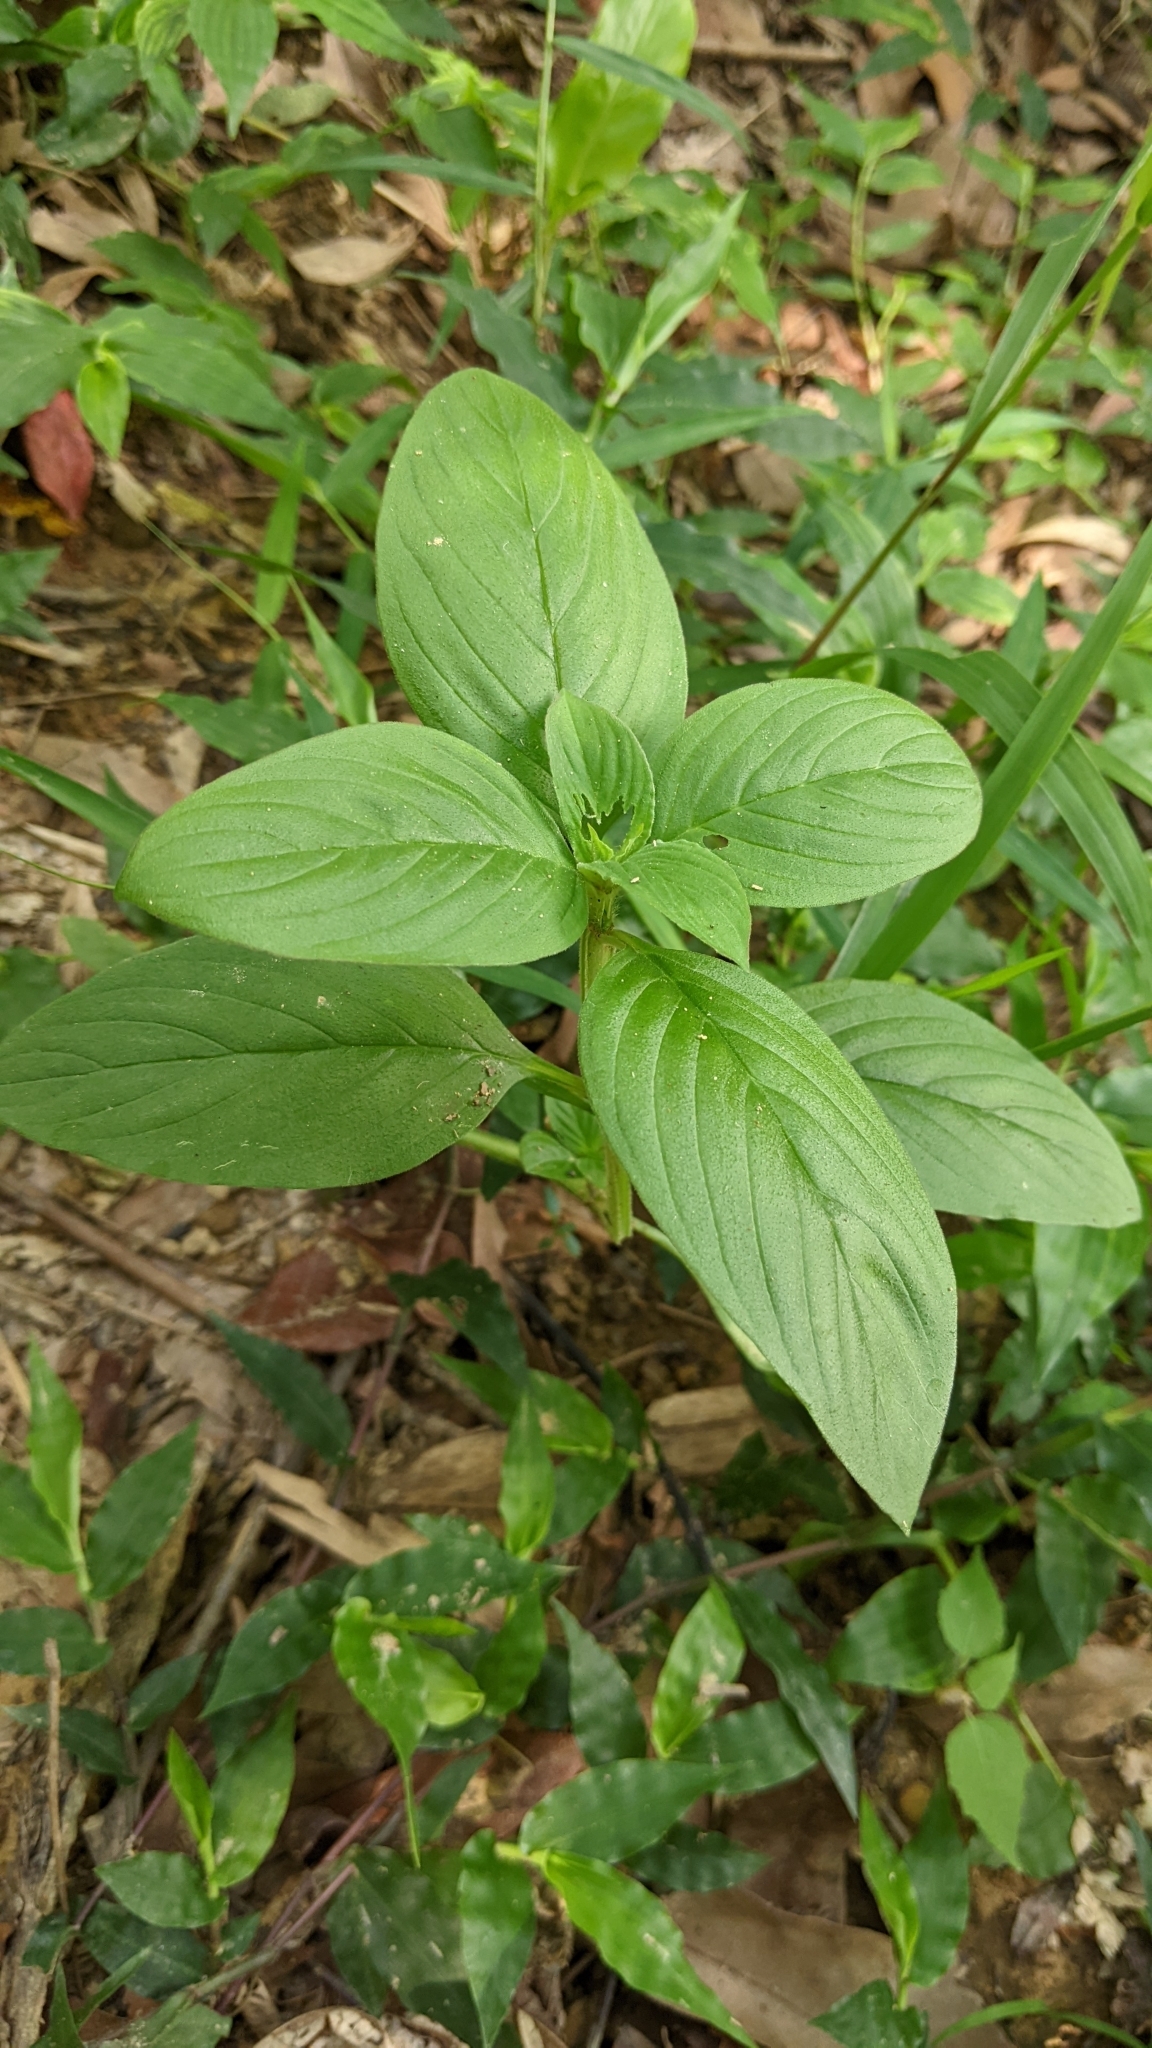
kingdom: Plantae
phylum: Tracheophyta
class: Magnoliopsida
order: Gentianales
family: Rubiaceae
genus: Spermacoce
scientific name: Spermacoce latifolia
